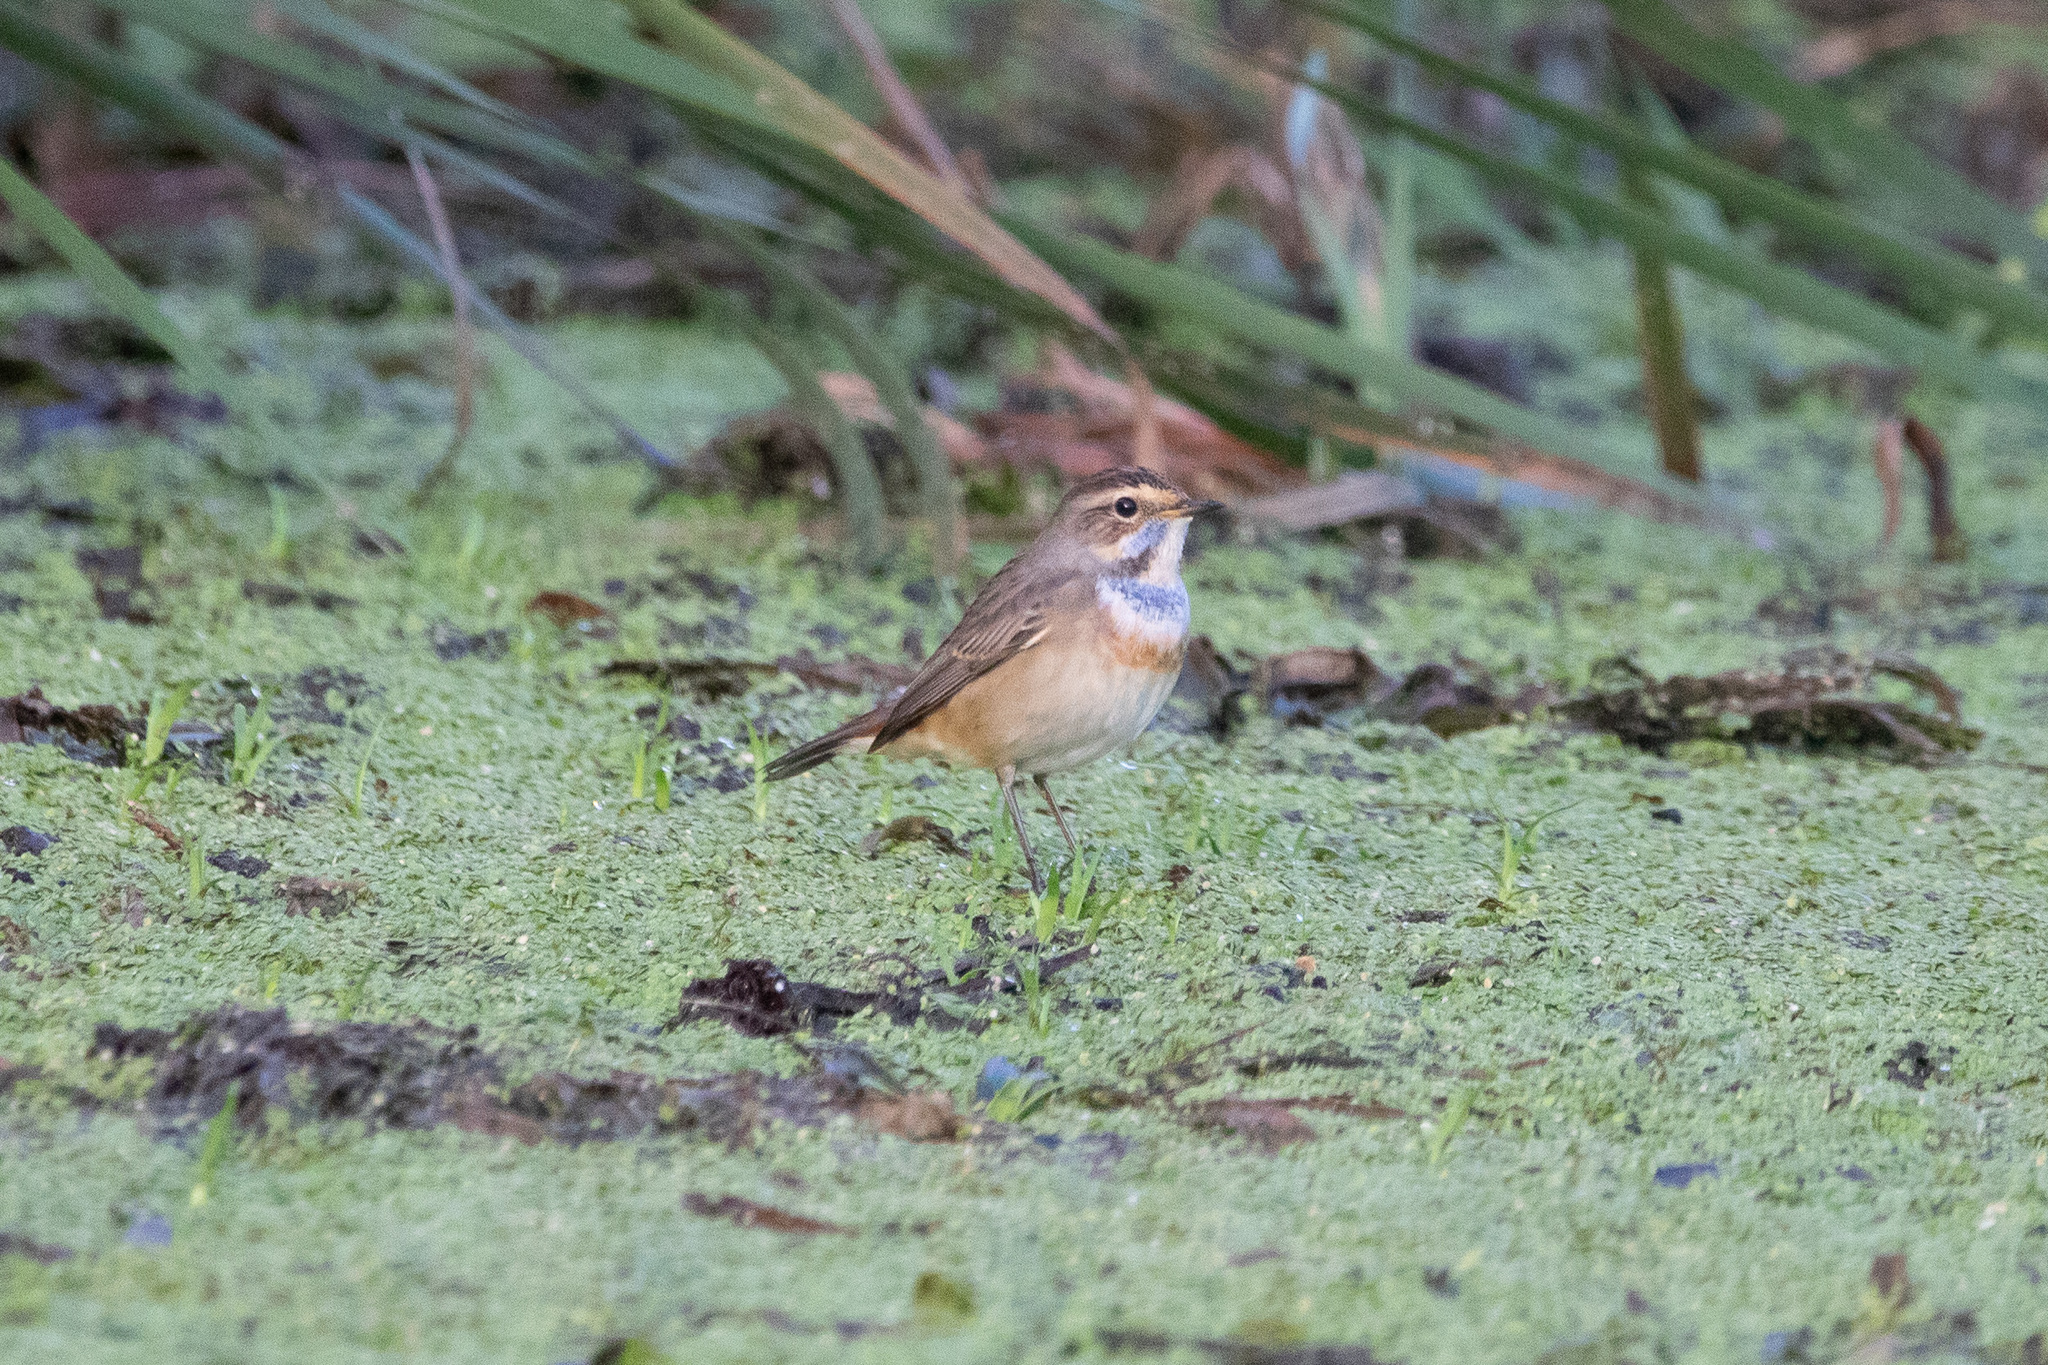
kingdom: Animalia
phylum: Chordata
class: Aves
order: Passeriformes
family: Muscicapidae
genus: Luscinia
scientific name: Luscinia svecica
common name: Bluethroat
